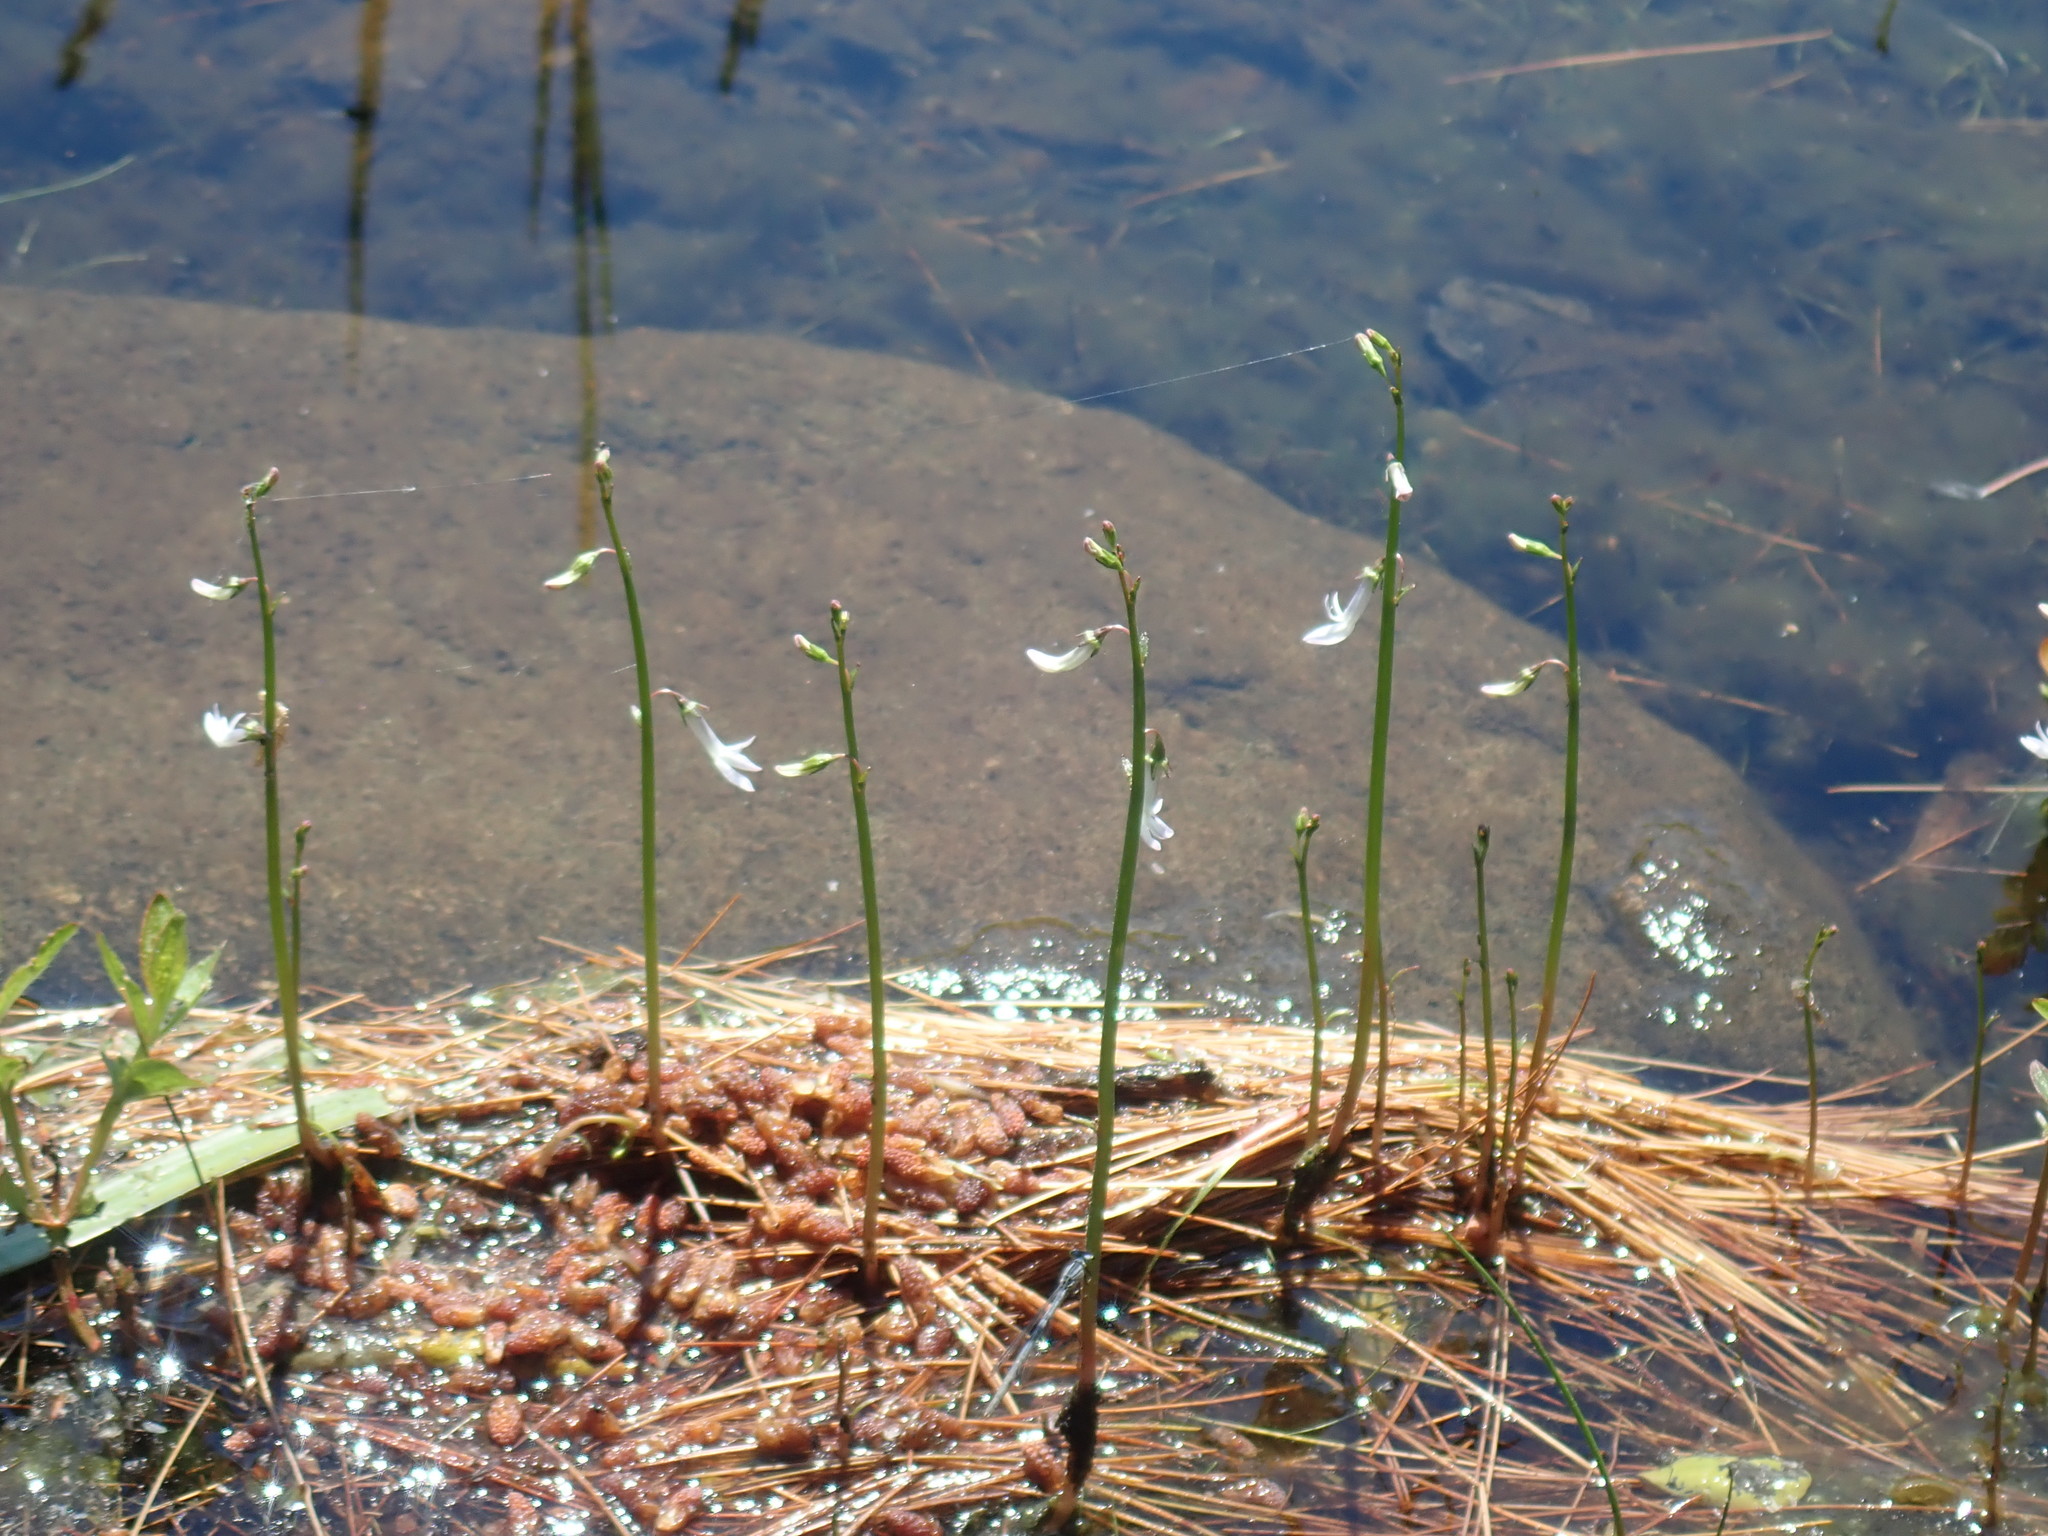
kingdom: Plantae
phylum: Tracheophyta
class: Magnoliopsida
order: Asterales
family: Campanulaceae
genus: Lobelia
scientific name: Lobelia dortmanna
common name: Water lobelia
